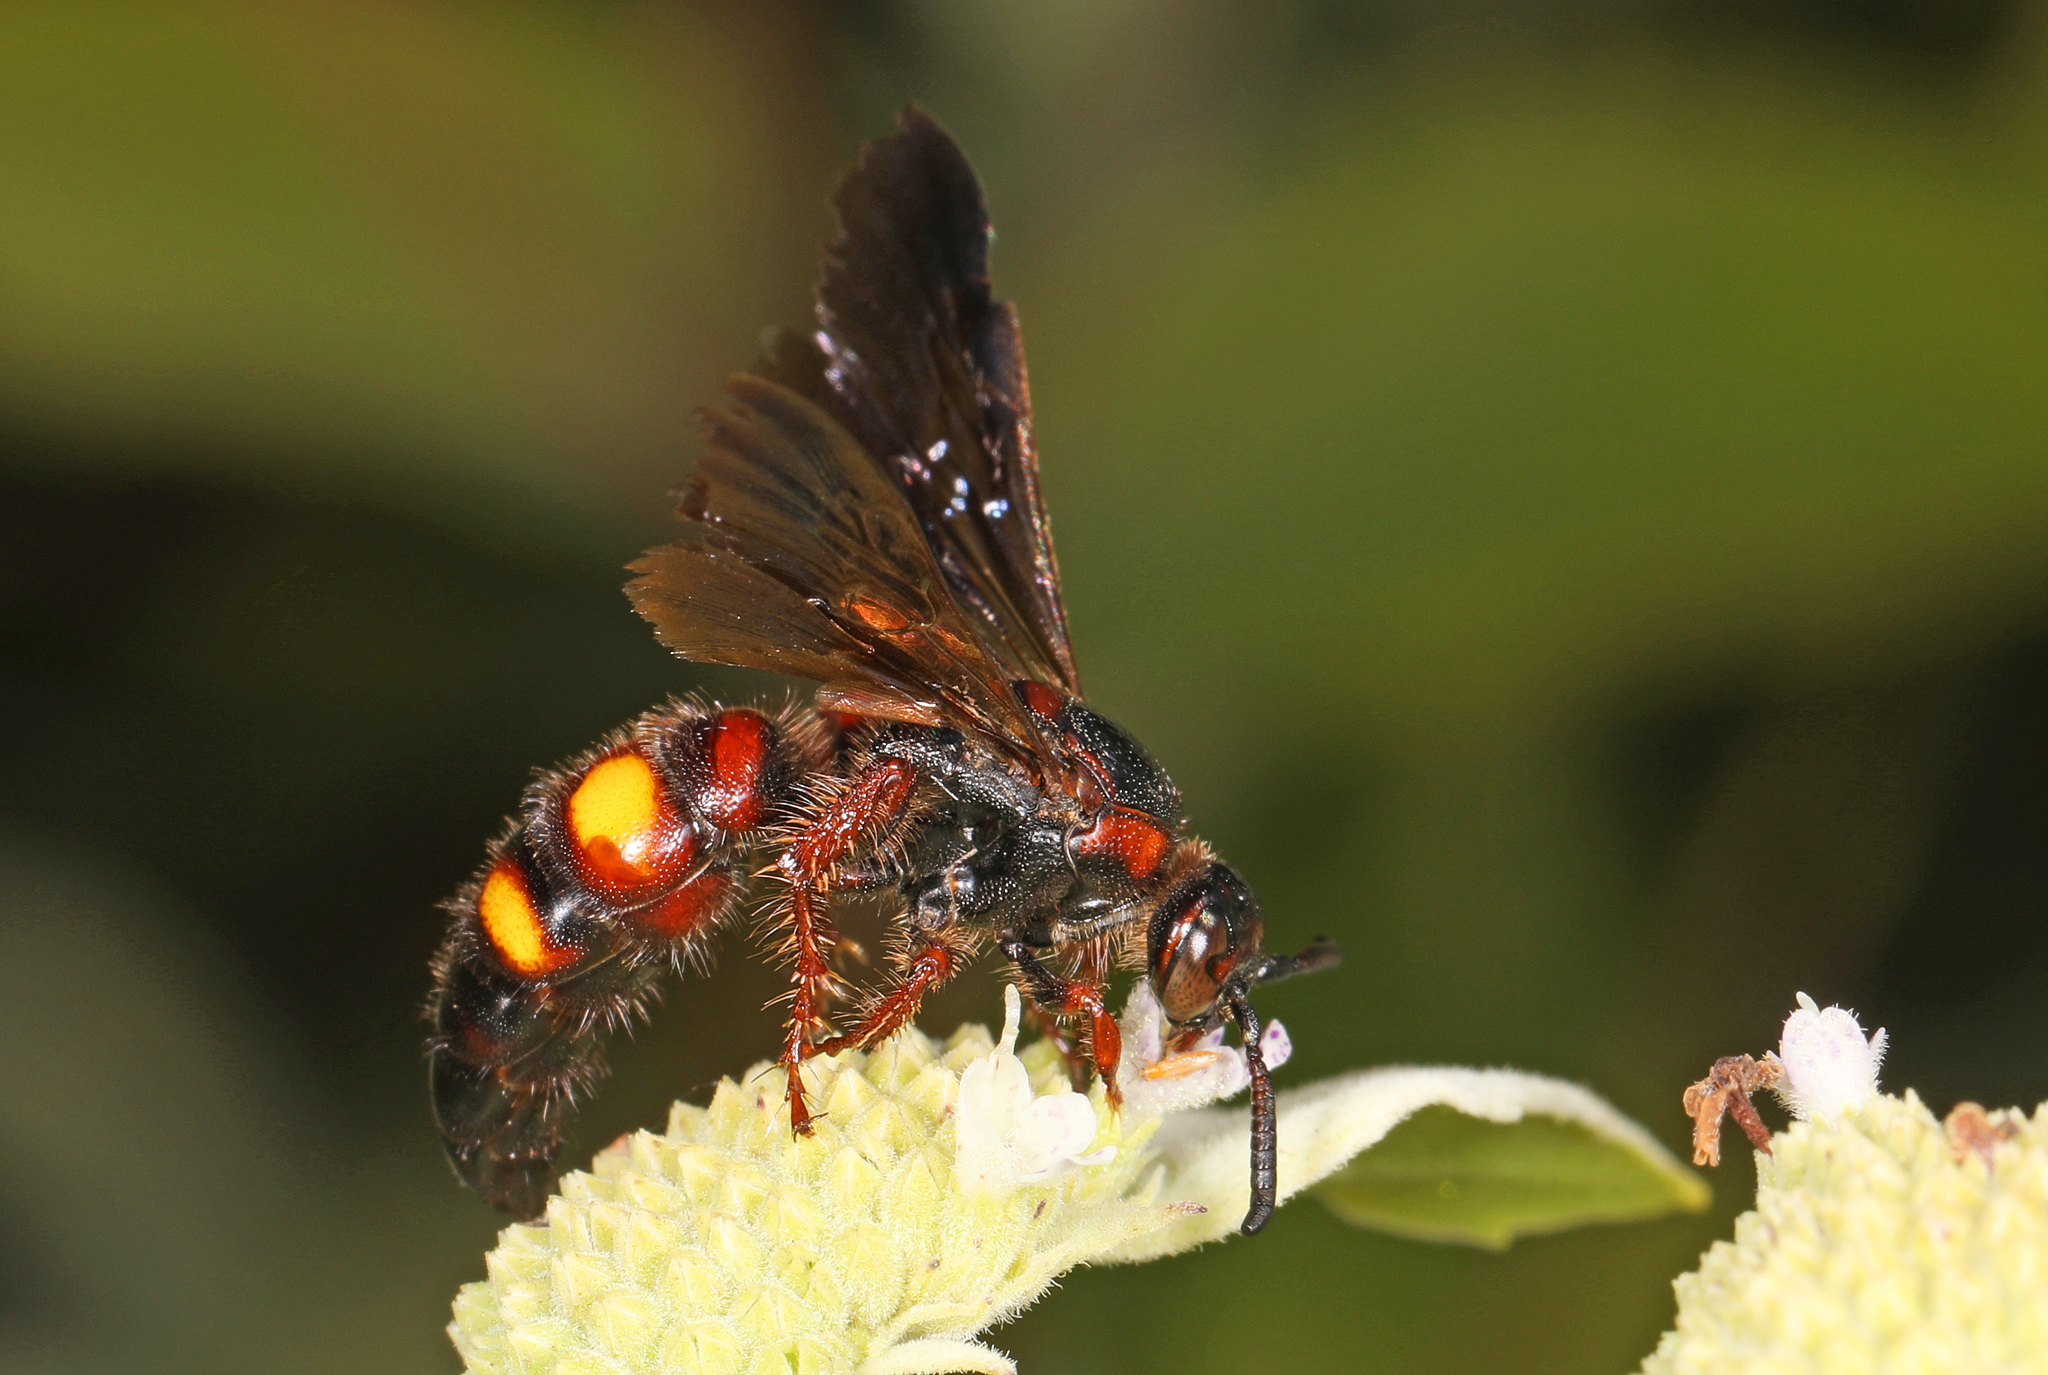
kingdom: Animalia
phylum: Arthropoda
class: Insecta
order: Hymenoptera
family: Scoliidae
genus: Scolia
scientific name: Scolia nobilitata
